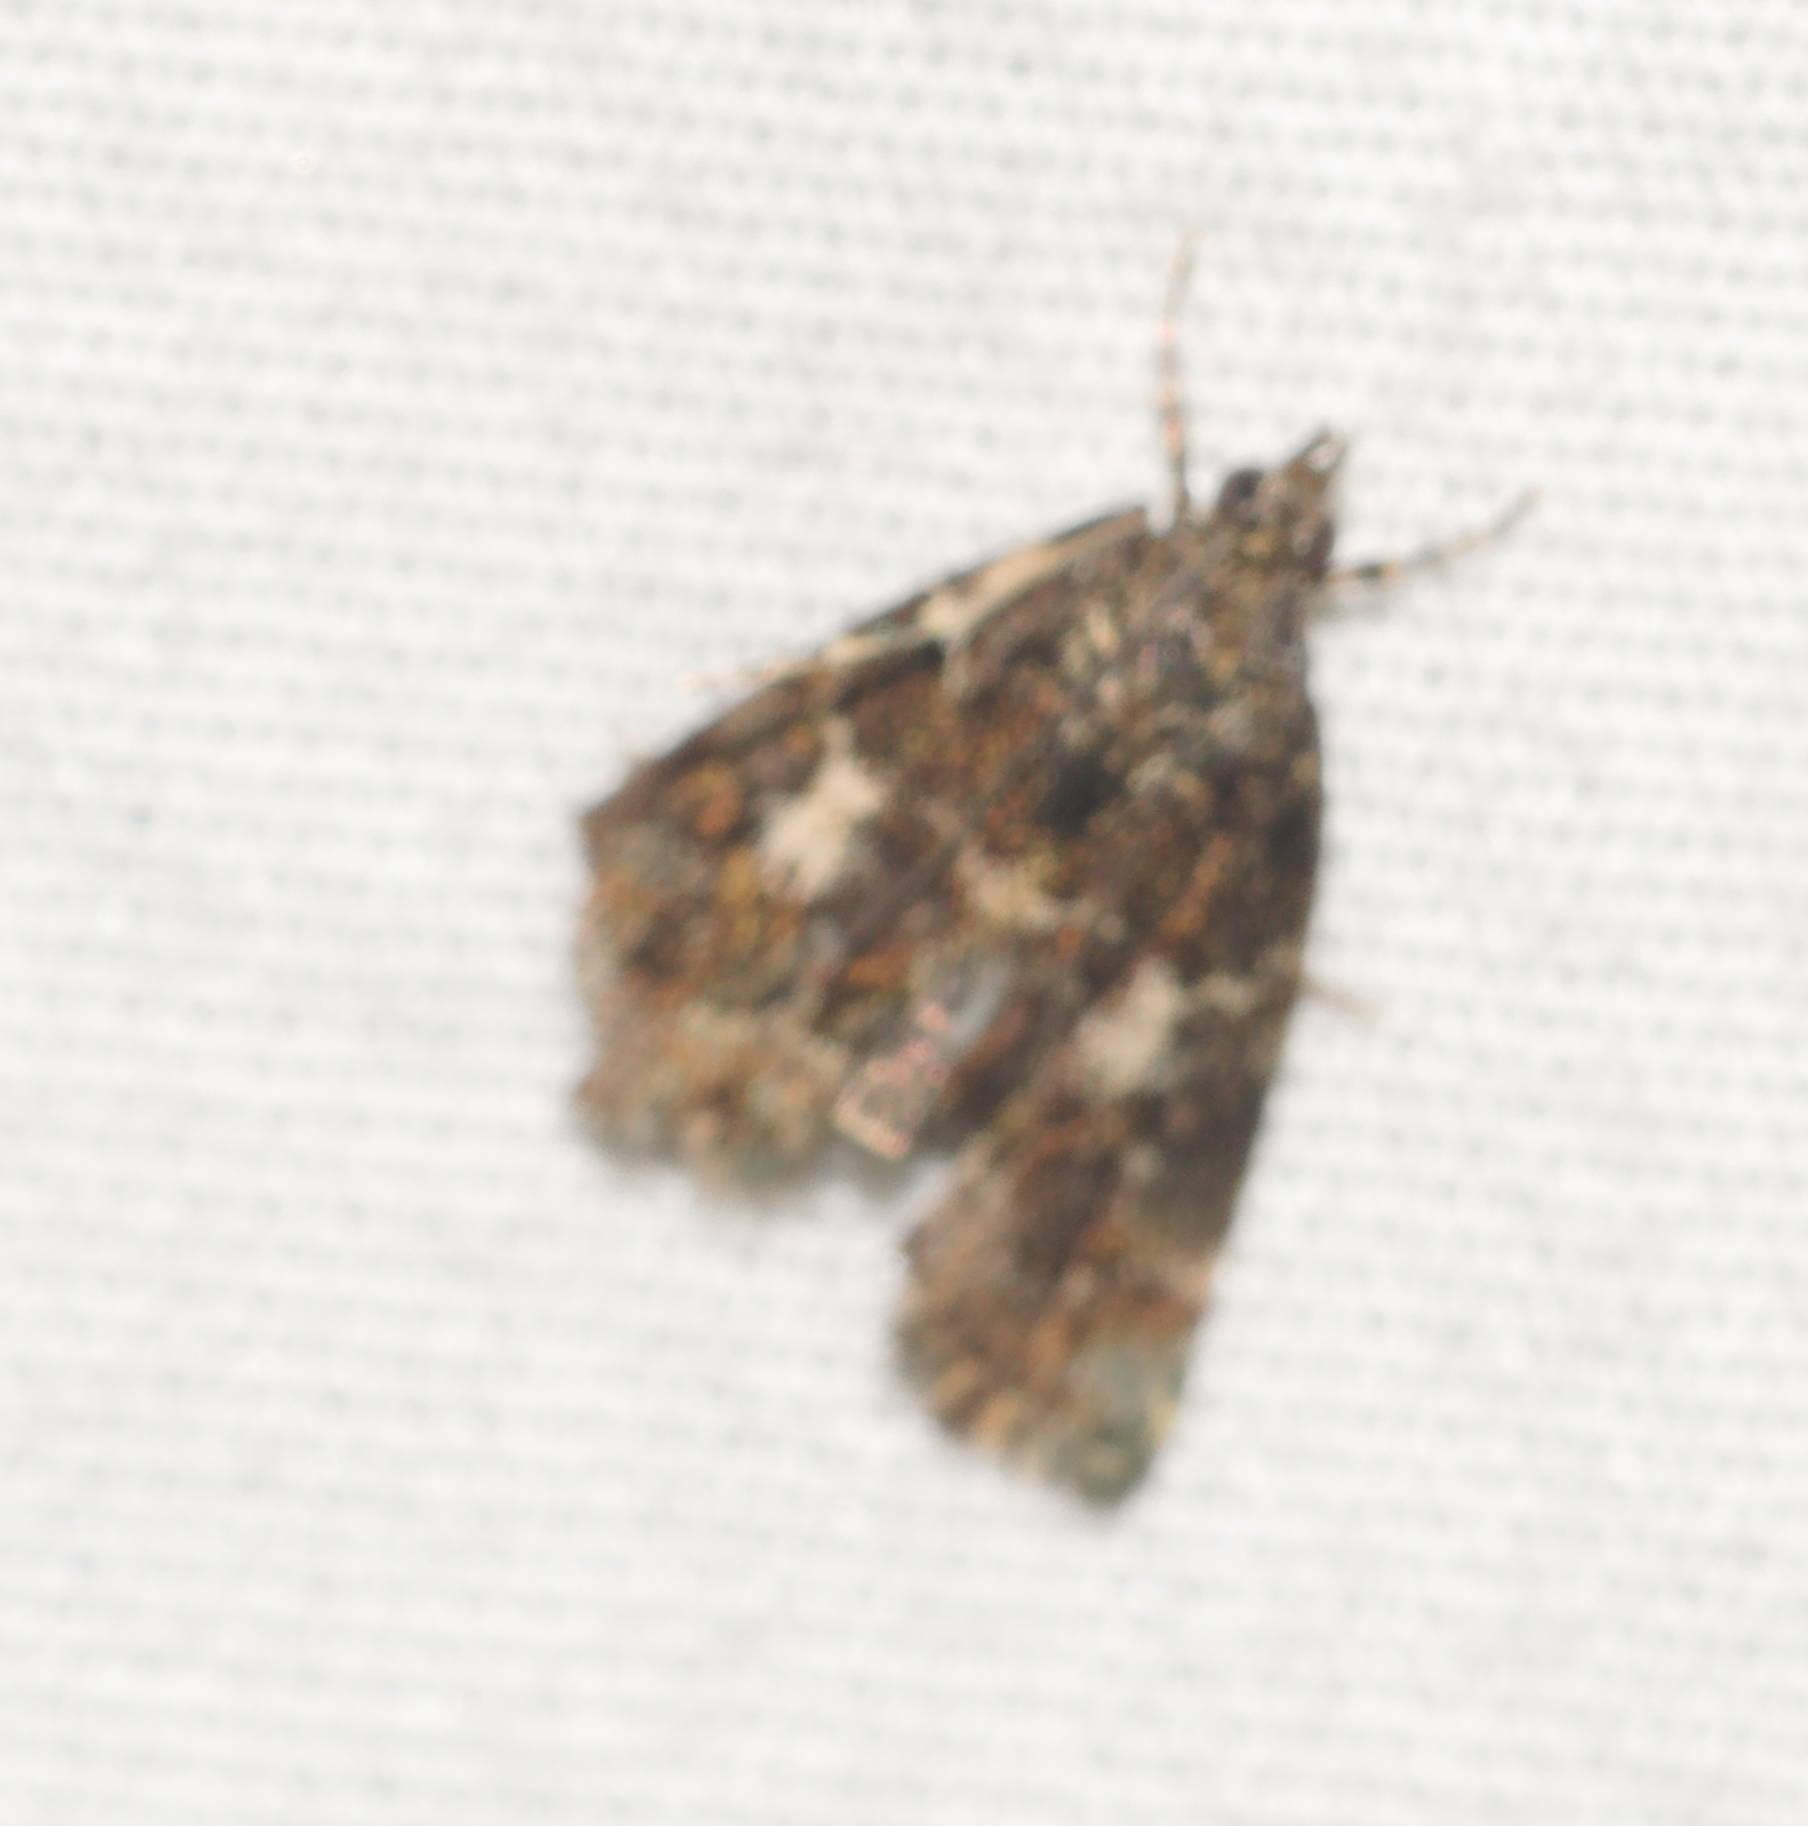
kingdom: Animalia
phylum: Arthropoda
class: Insecta
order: Lepidoptera
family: Crambidae
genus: Mestolobes
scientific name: Mestolobes abnormis
